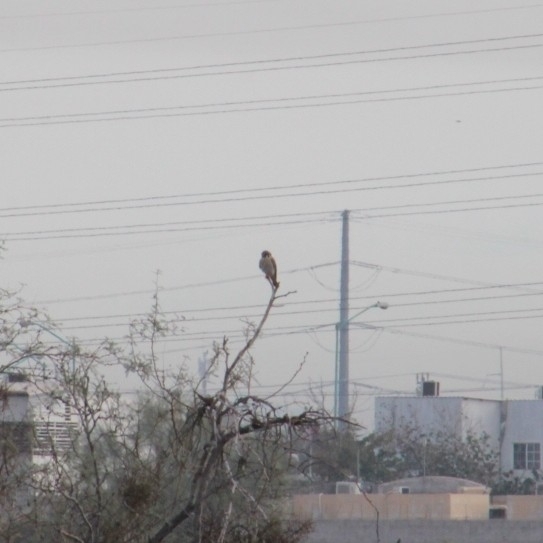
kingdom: Animalia
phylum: Chordata
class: Aves
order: Falconiformes
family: Falconidae
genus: Falco
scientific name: Falco sparverius
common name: American kestrel
